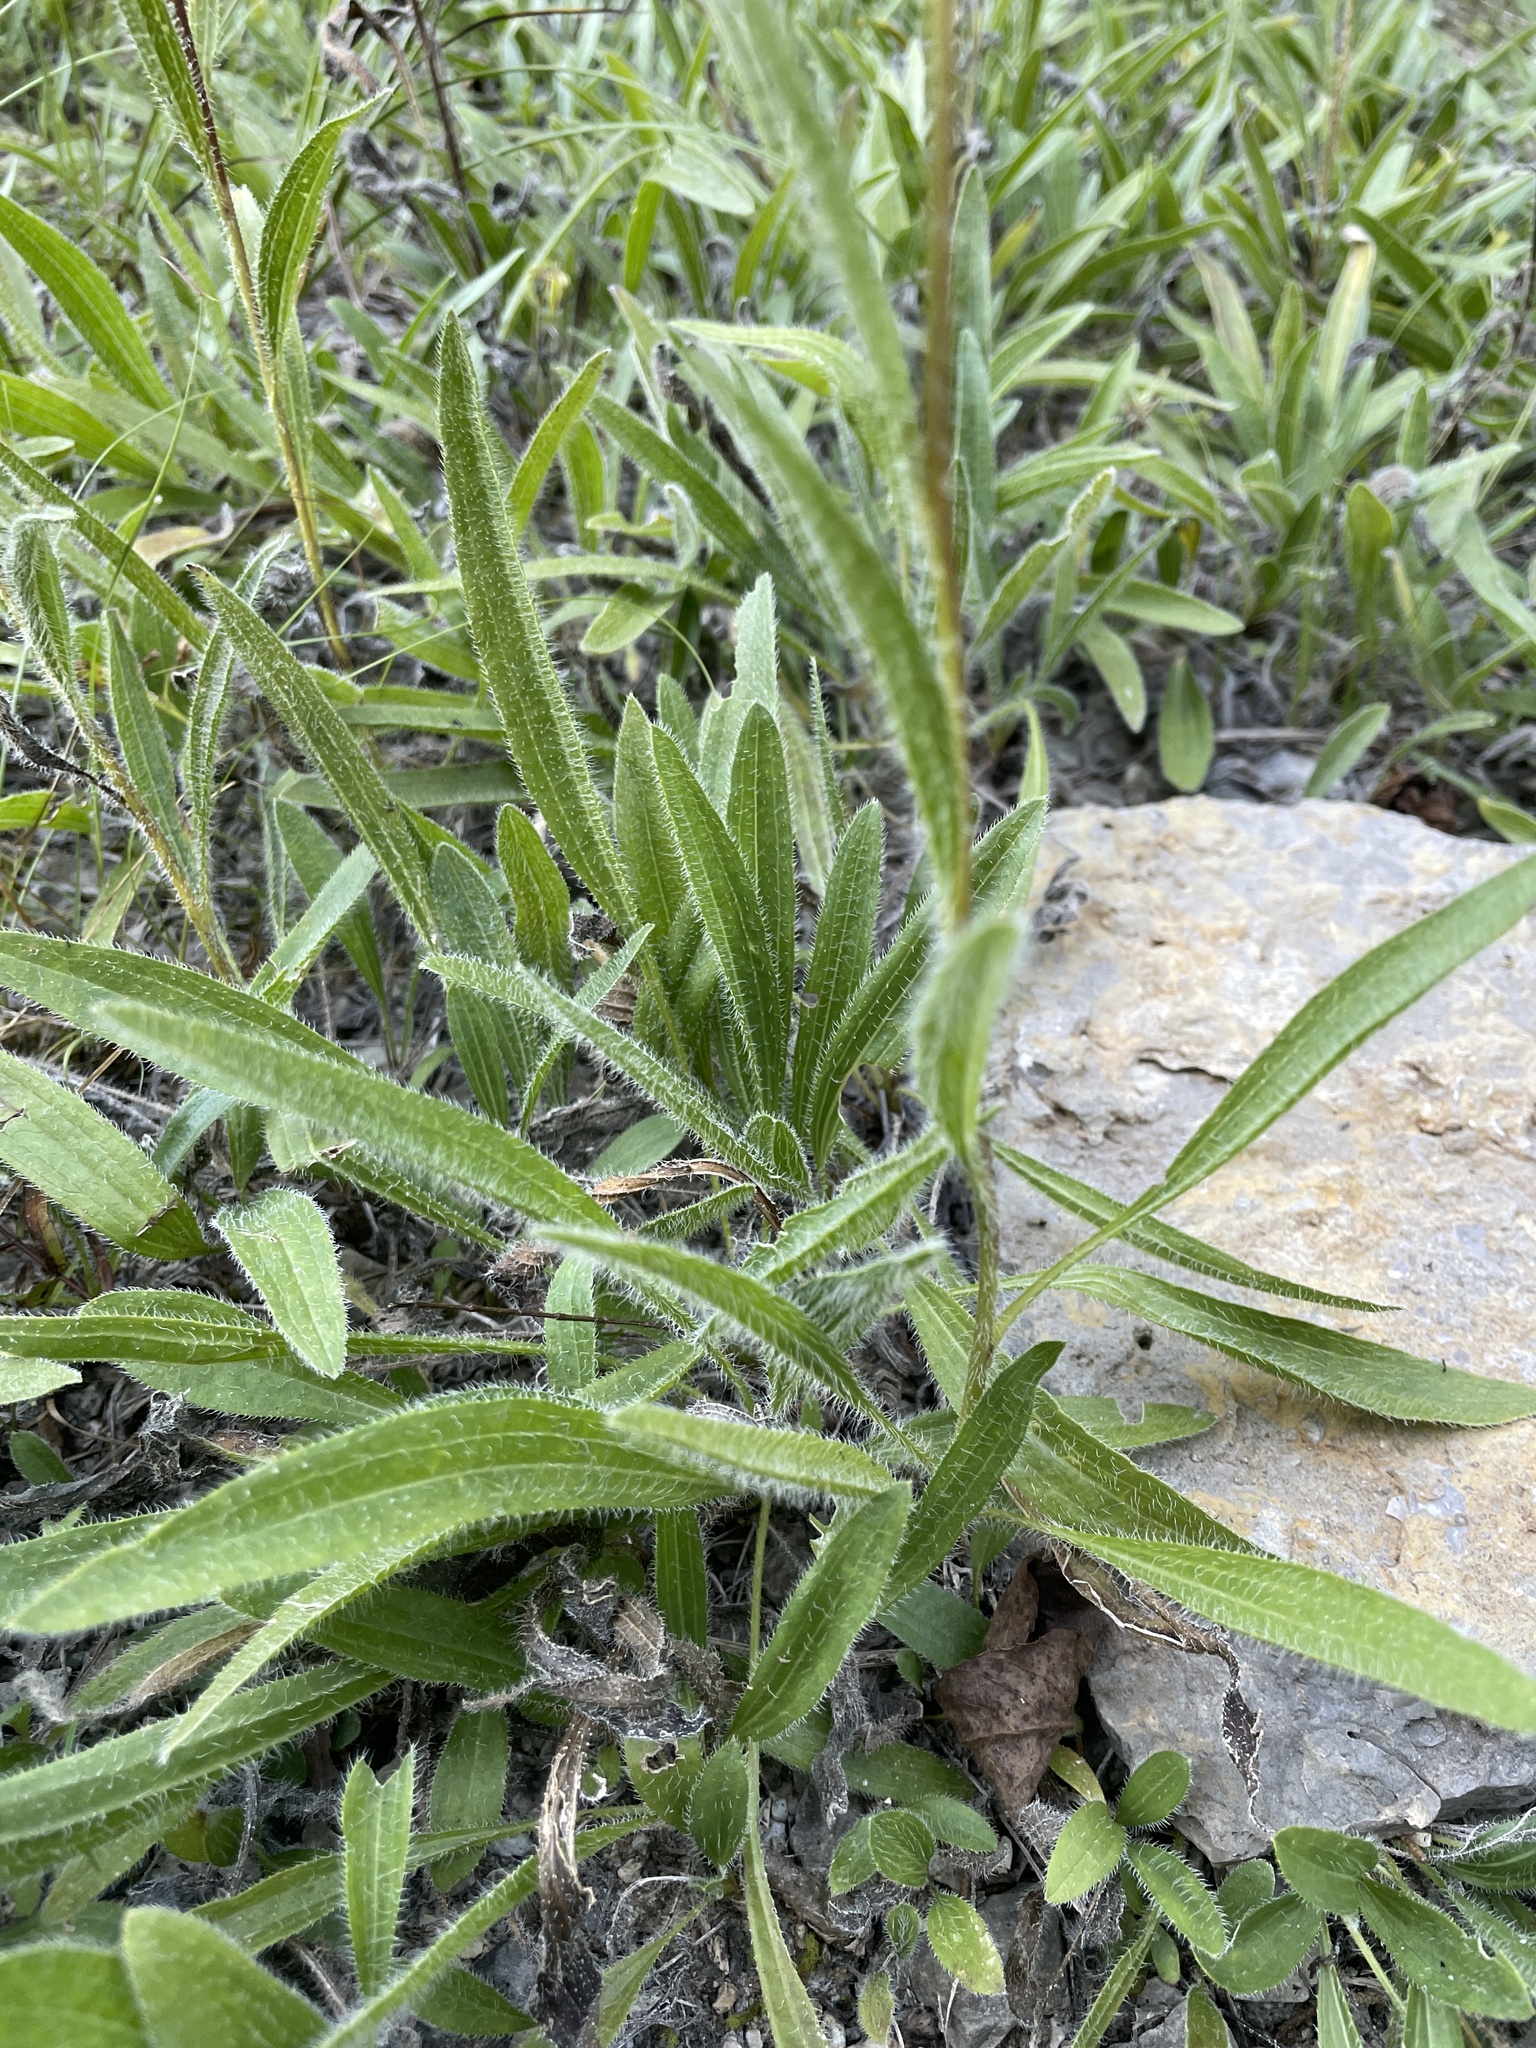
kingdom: Plantae
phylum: Tracheophyta
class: Magnoliopsida
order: Asterales
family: Asteraceae
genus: Echinacea
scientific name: Echinacea tennesseensis
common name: Tennessee purple-coneflower
